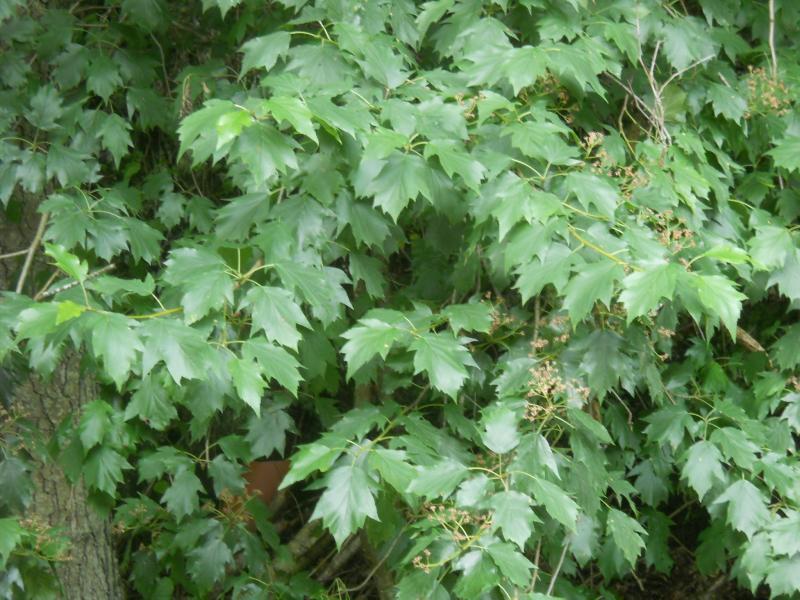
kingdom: Plantae
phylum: Tracheophyta
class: Magnoliopsida
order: Rosales
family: Rosaceae
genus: Torminalis
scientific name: Torminalis glaberrima
